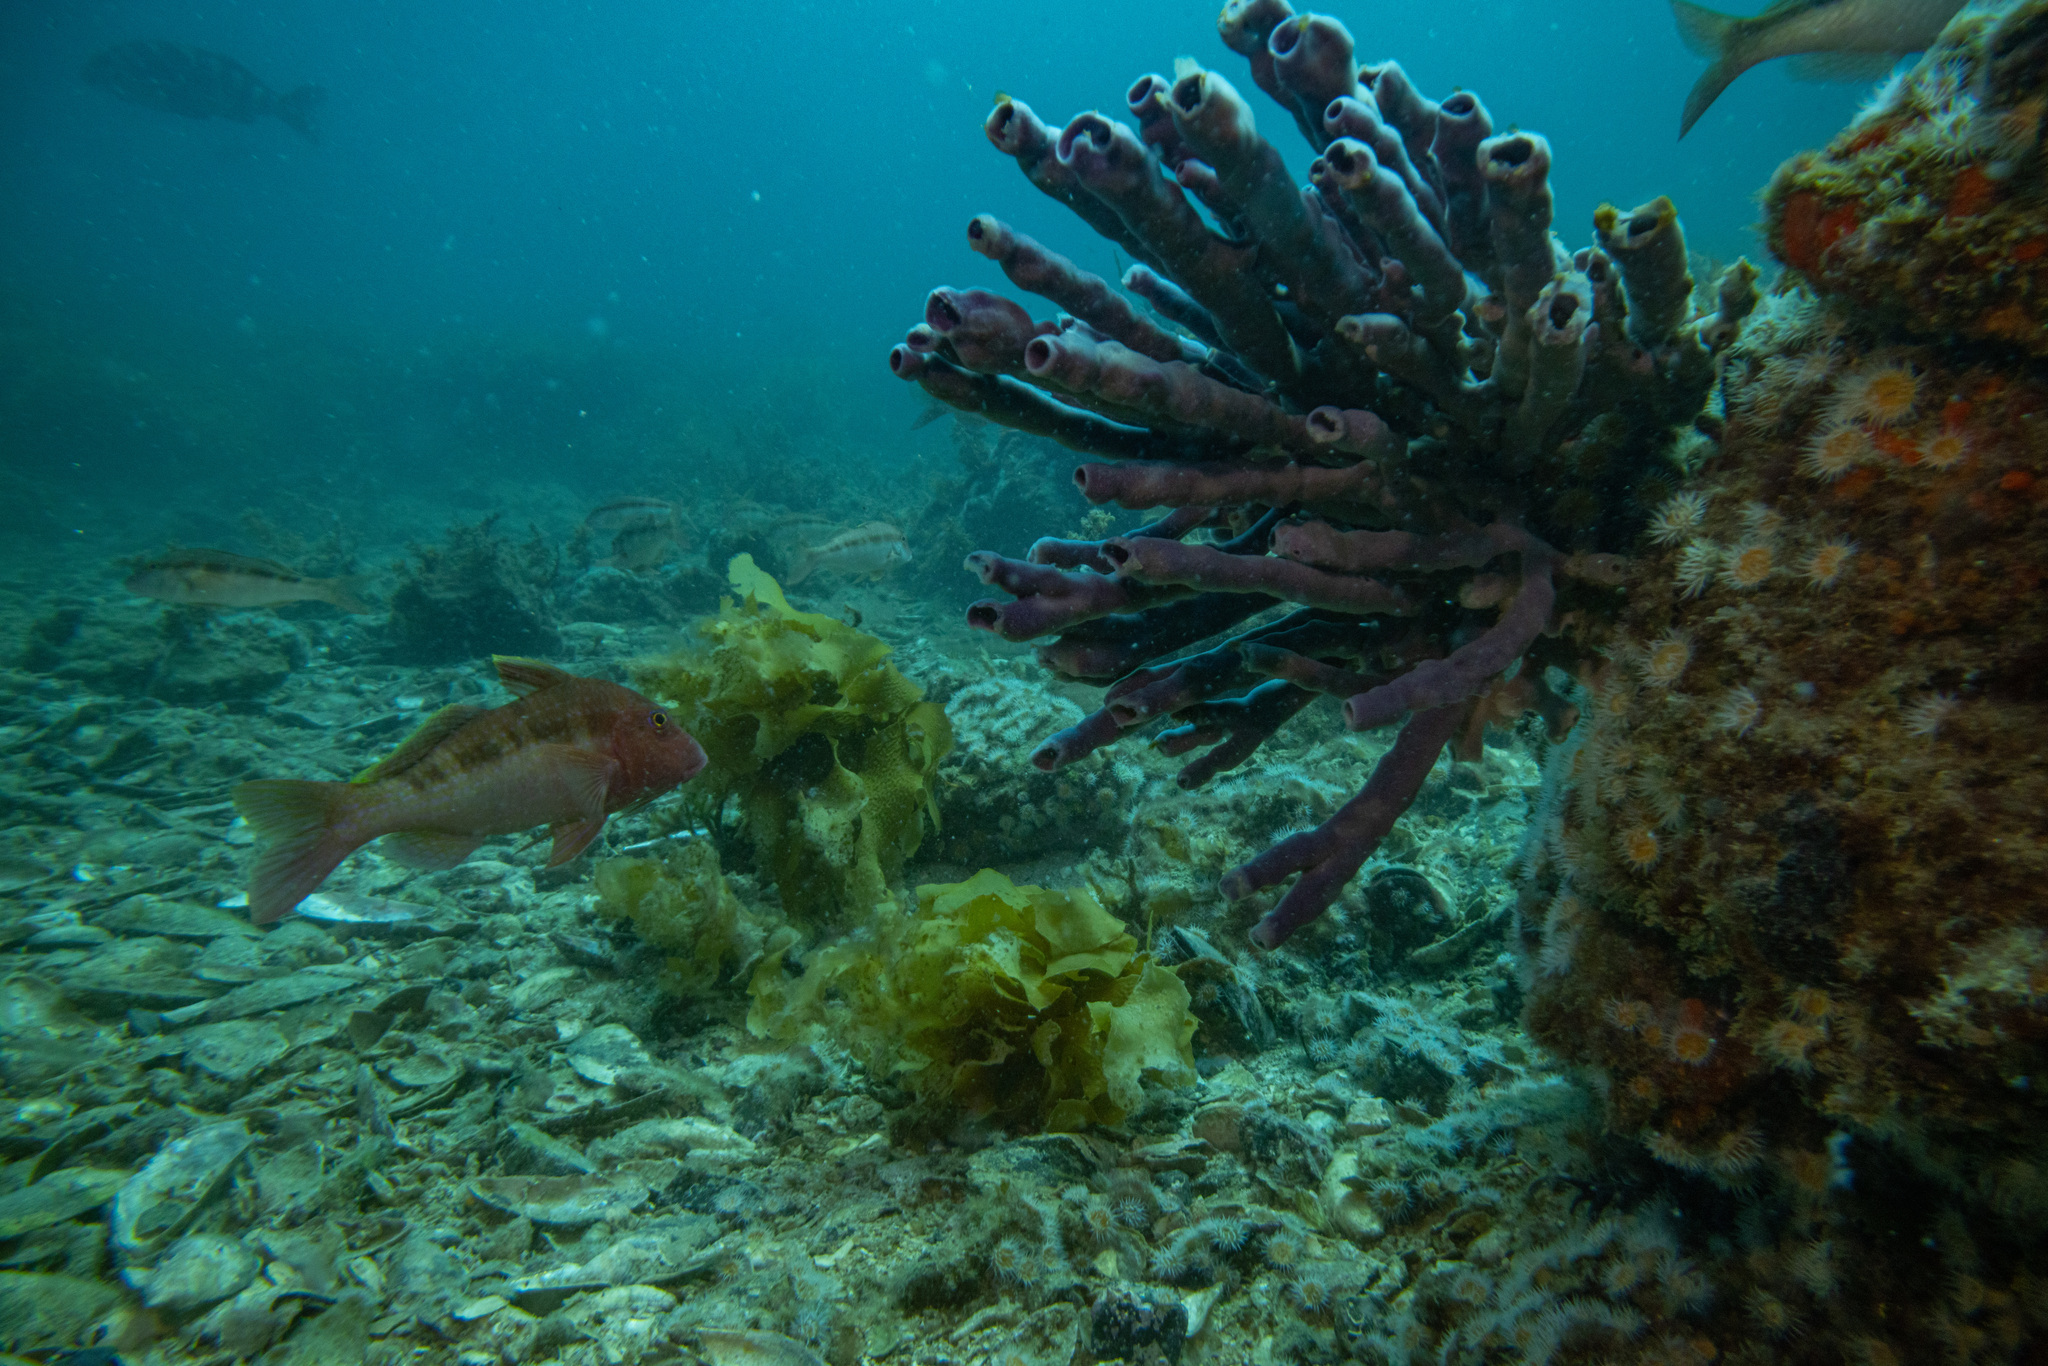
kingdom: Animalia
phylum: Porifera
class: Demospongiae
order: Haplosclerida
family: Callyspongiidae
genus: Callyspongia
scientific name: Callyspongia annulata
